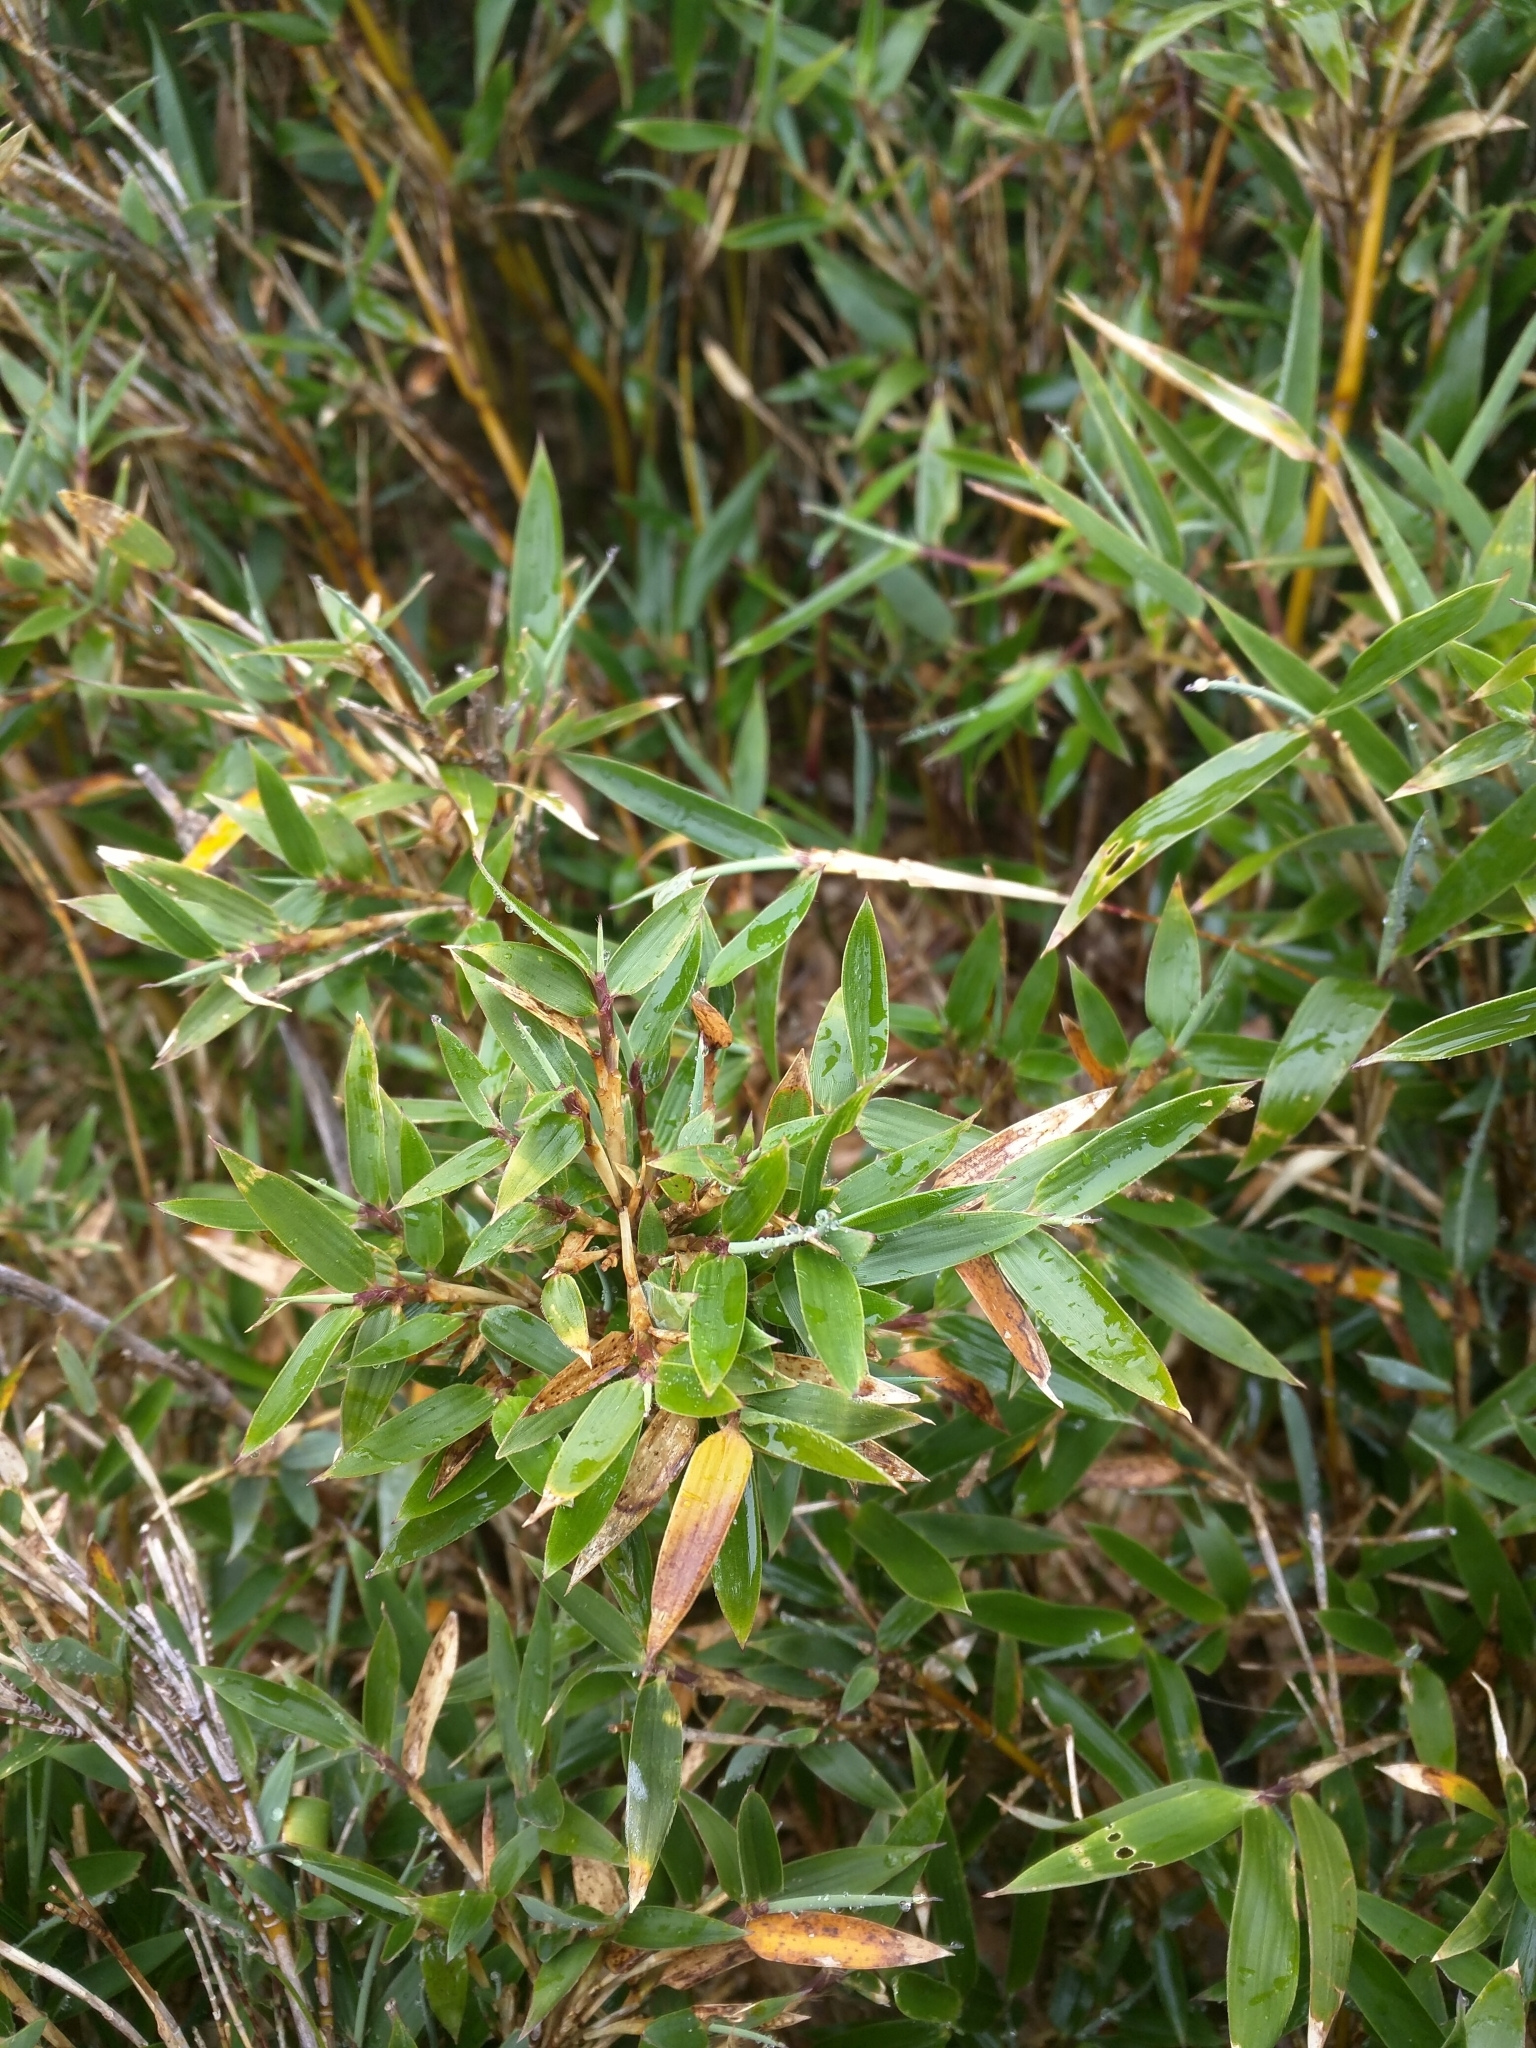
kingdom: Plantae
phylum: Tracheophyta
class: Liliopsida
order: Poales
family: Poaceae
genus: Yushania
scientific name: Yushania niitakayamensis
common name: Yushan cane
